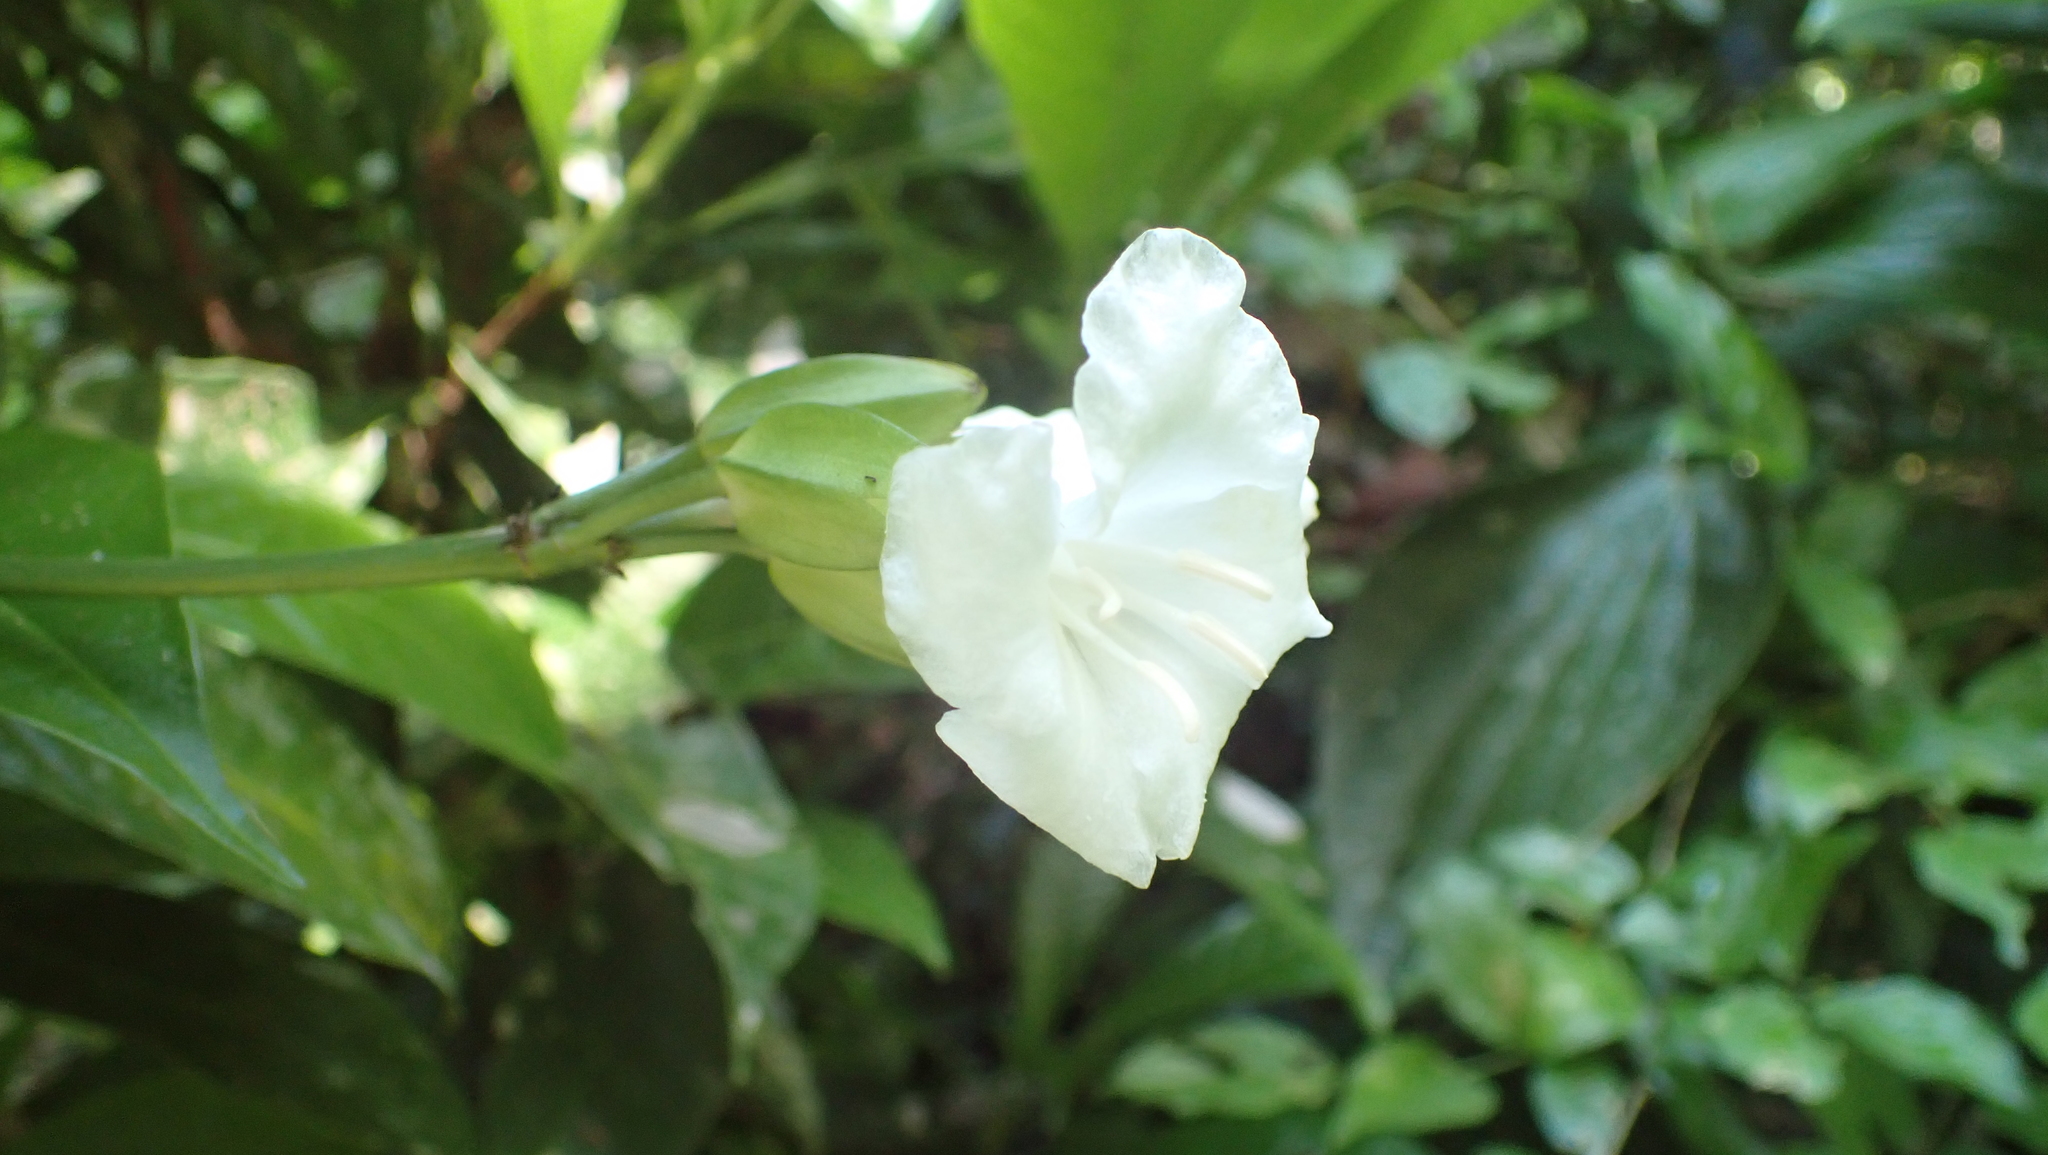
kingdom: Plantae
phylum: Tracheophyta
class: Magnoliopsida
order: Sapindales
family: Rutaceae
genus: Erythrochiton
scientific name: Erythrochiton gymnanthus
